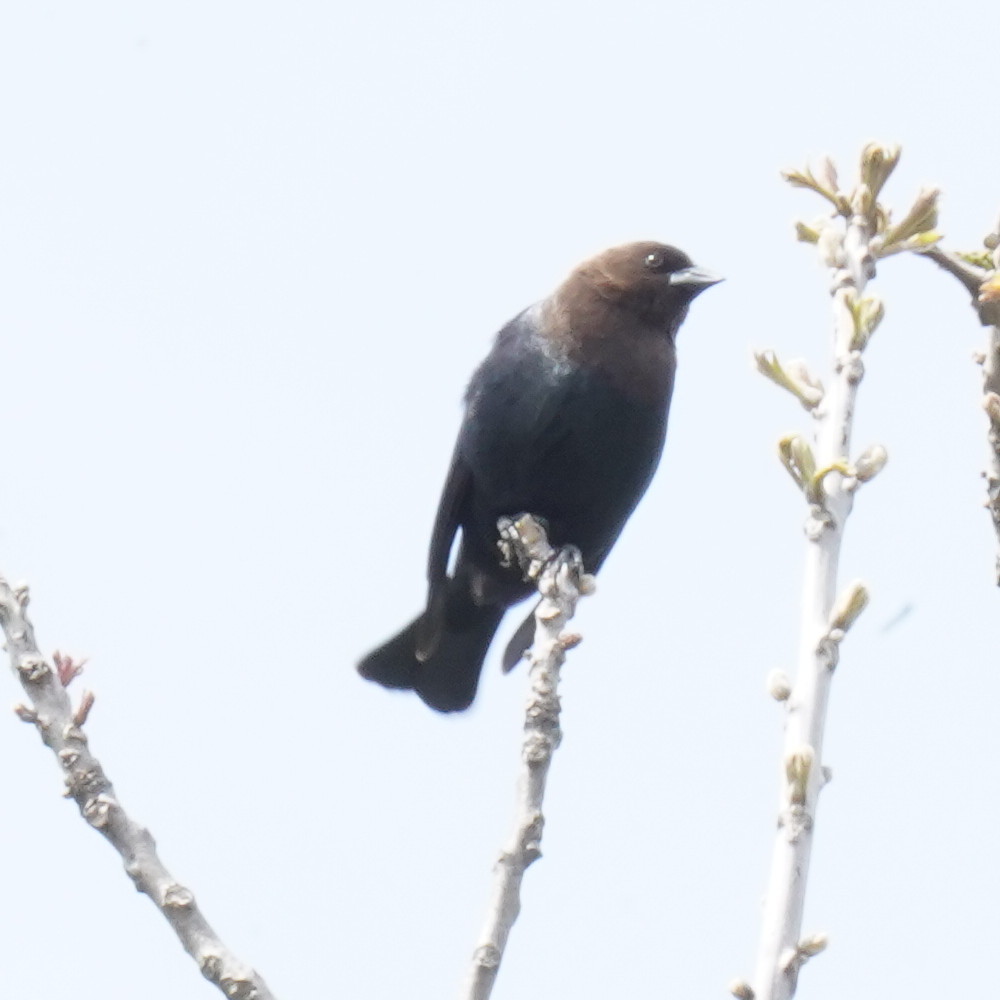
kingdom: Animalia
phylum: Chordata
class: Aves
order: Passeriformes
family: Icteridae
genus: Molothrus
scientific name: Molothrus ater
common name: Brown-headed cowbird
